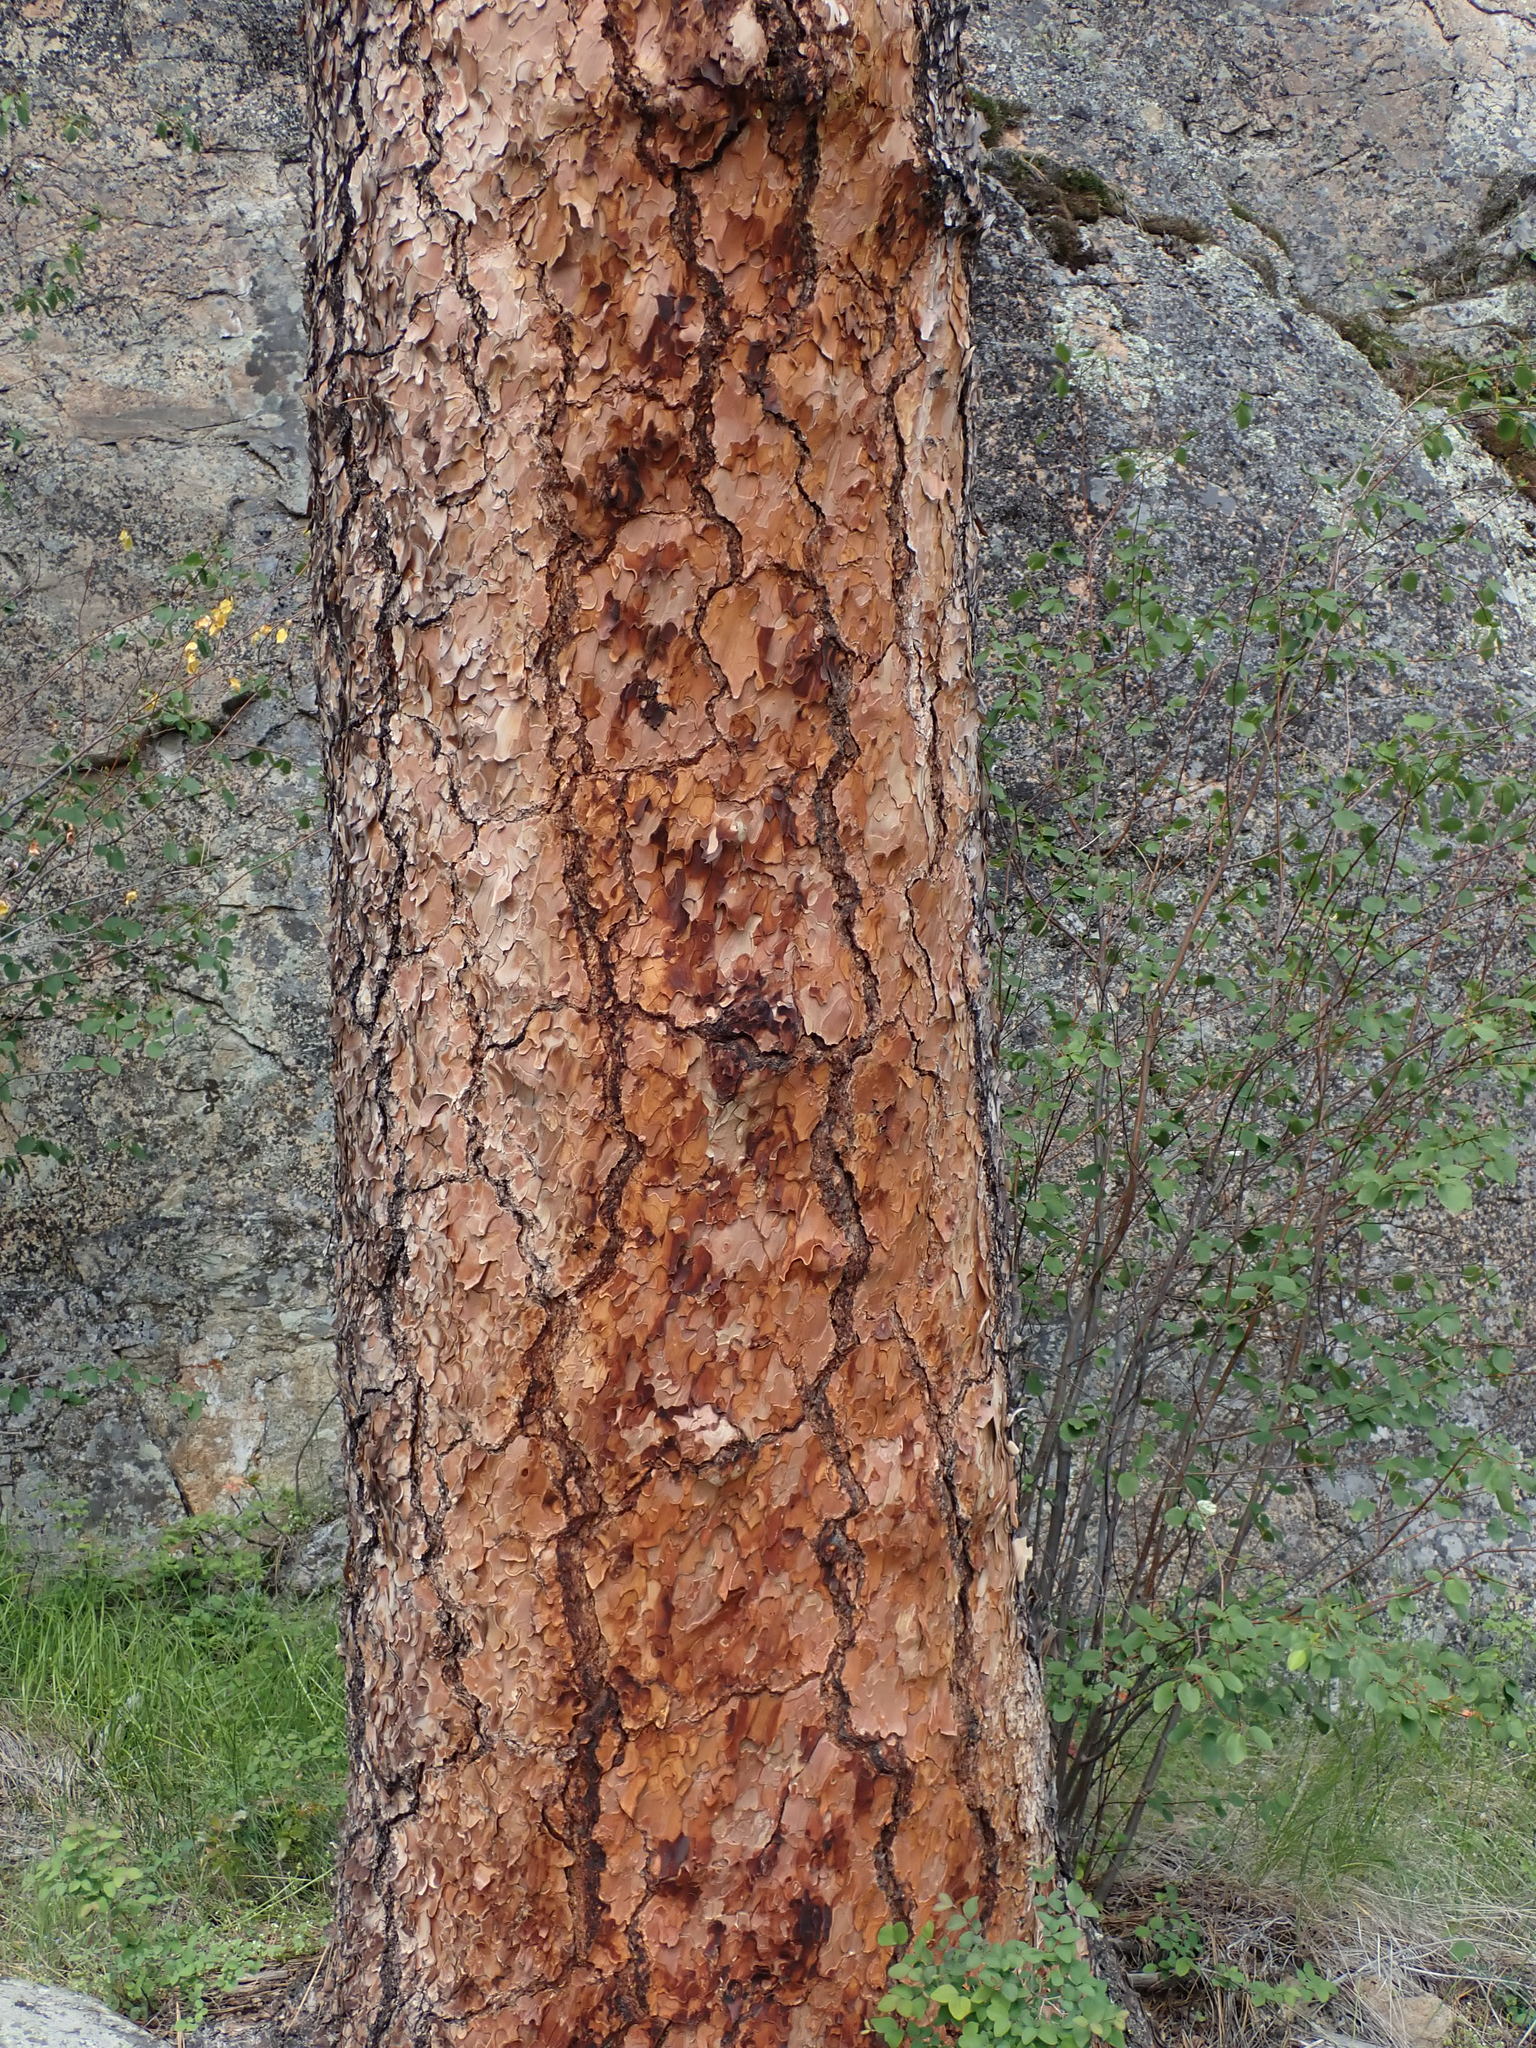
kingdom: Plantae
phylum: Tracheophyta
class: Pinopsida
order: Pinales
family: Pinaceae
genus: Pinus
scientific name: Pinus ponderosa
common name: Western yellow-pine
